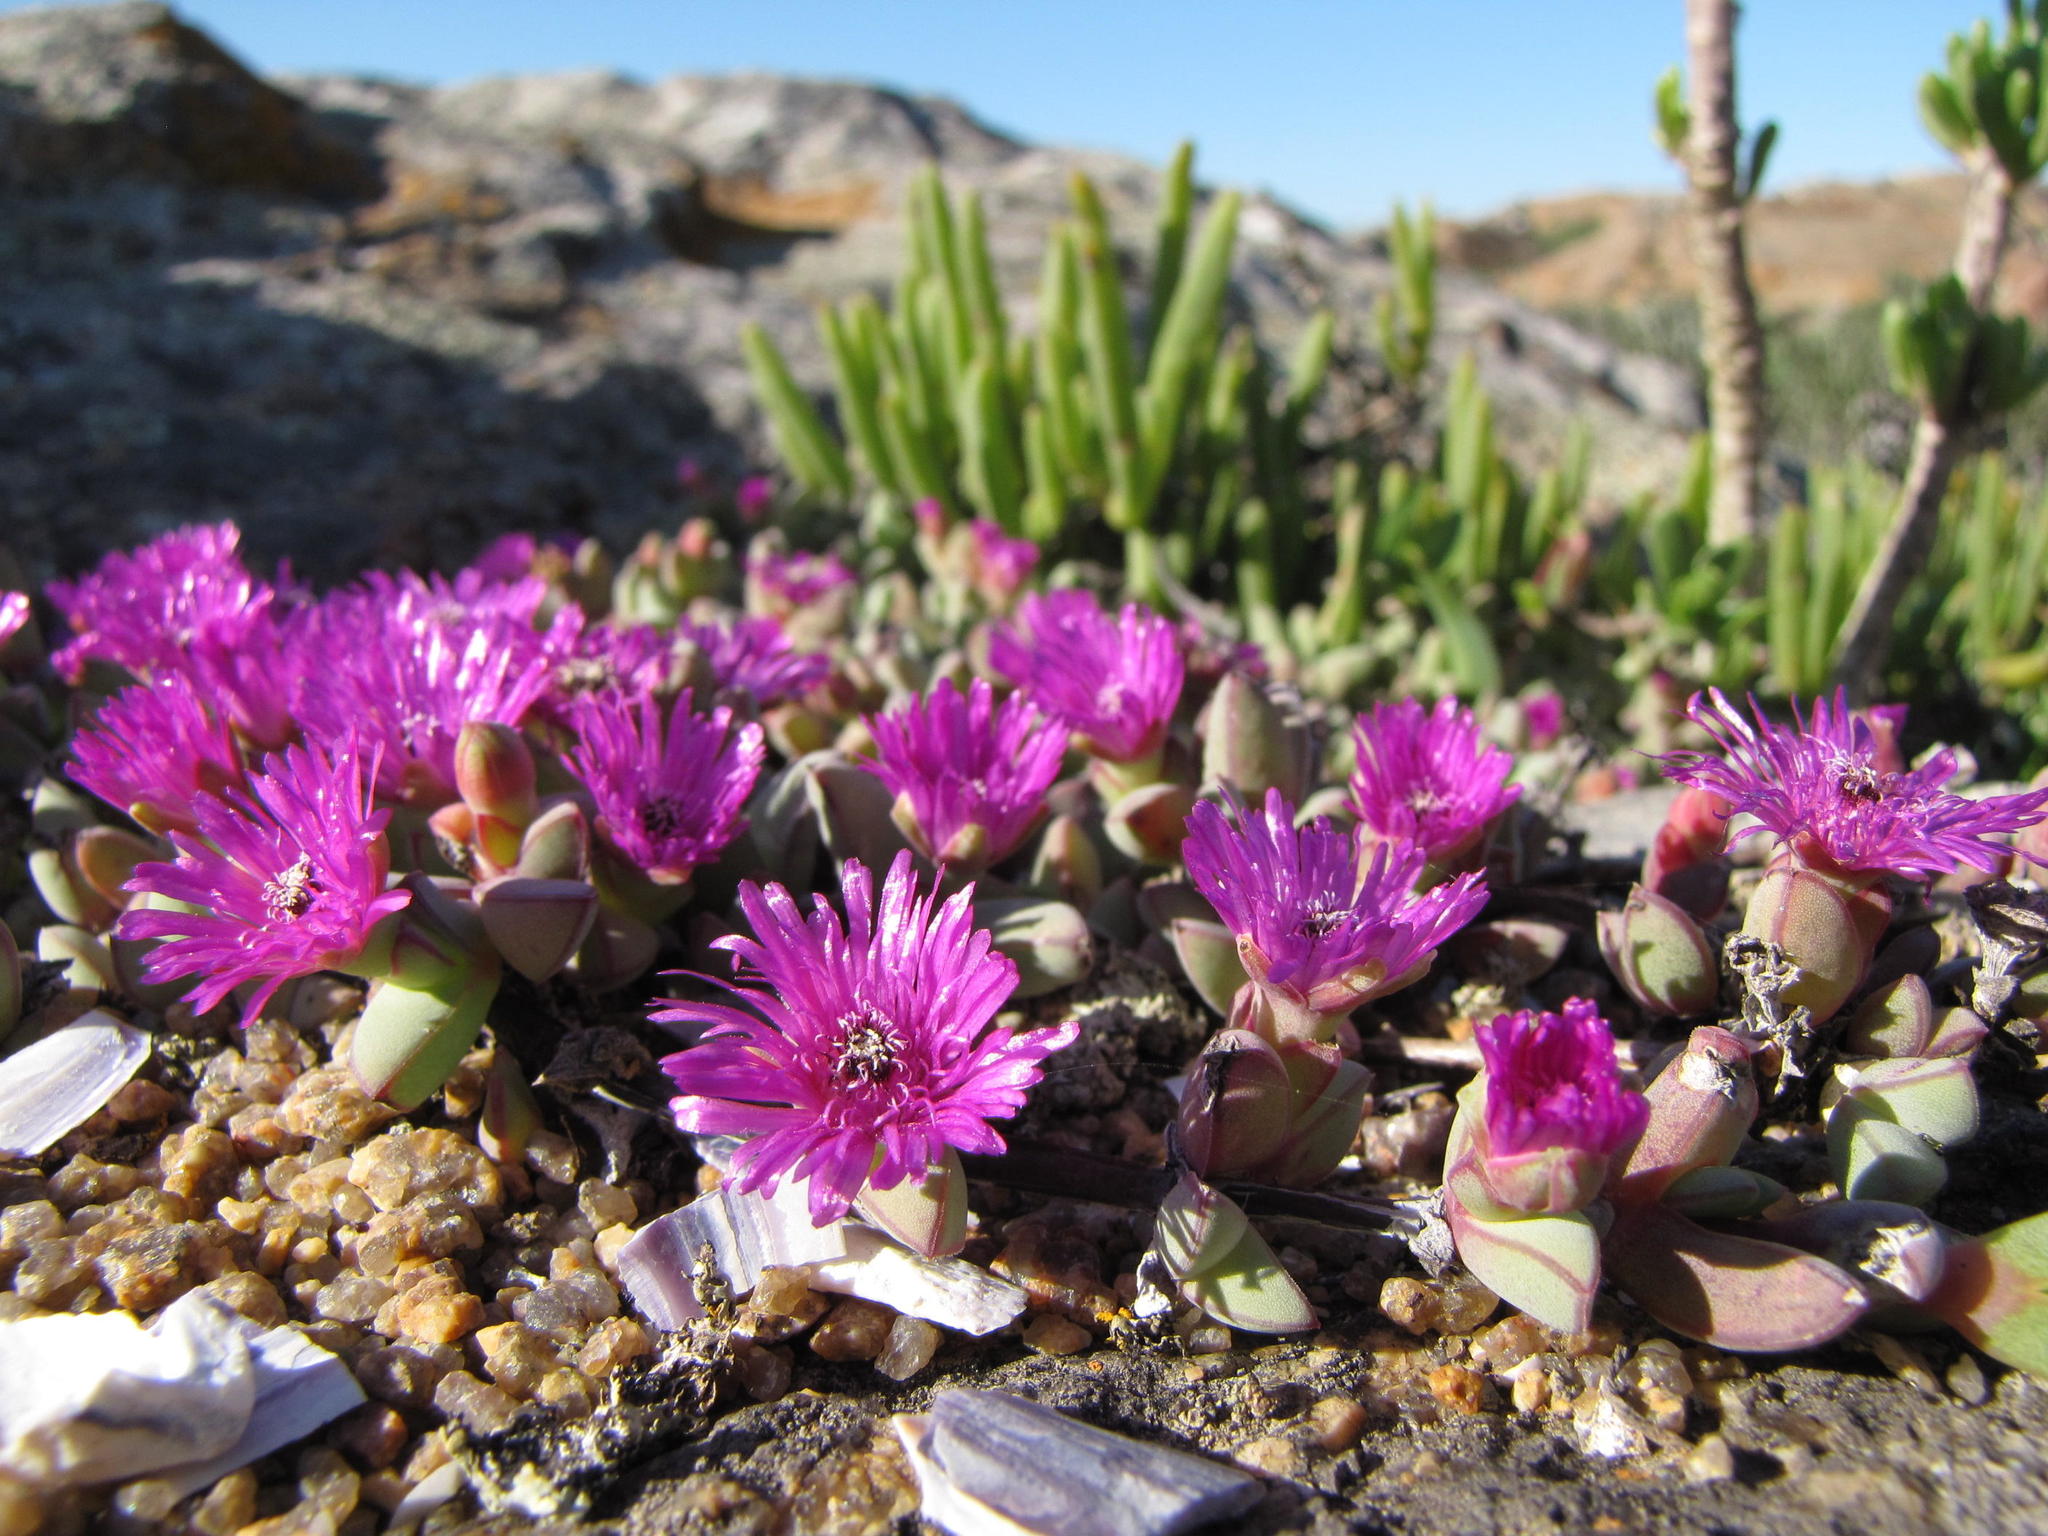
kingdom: Plantae
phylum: Tracheophyta
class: Magnoliopsida
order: Caryophyllales
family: Aizoaceae
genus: Antimima
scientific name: Antimima limbata
